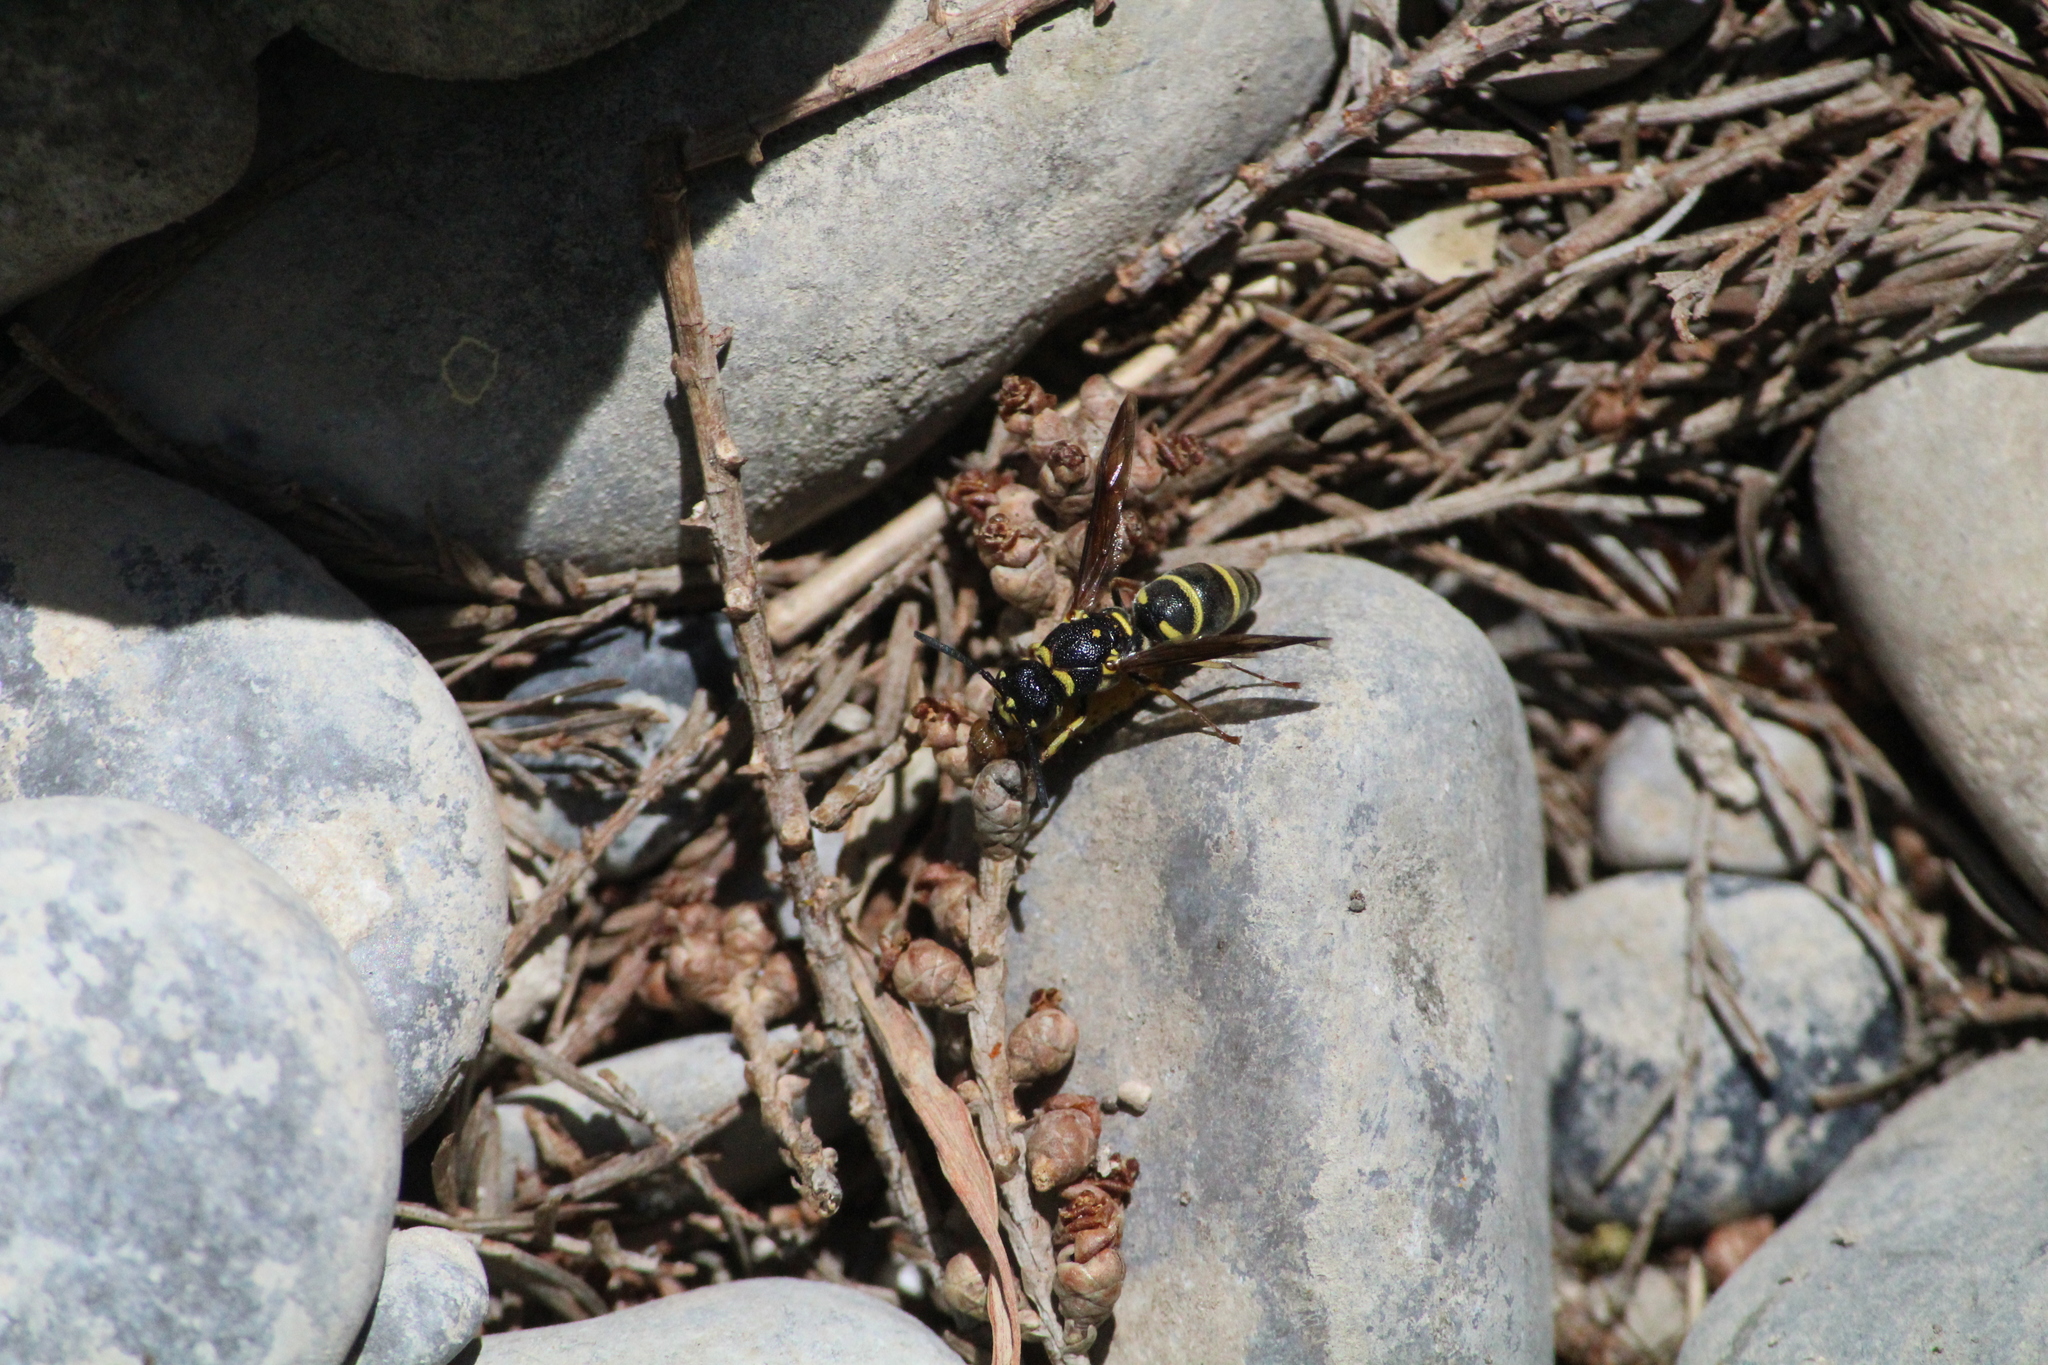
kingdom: Animalia
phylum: Arthropoda
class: Insecta
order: Hymenoptera
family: Eumenidae
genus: Parancistrocerus
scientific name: Parancistrocerus fulvipes
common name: Potter wasp
